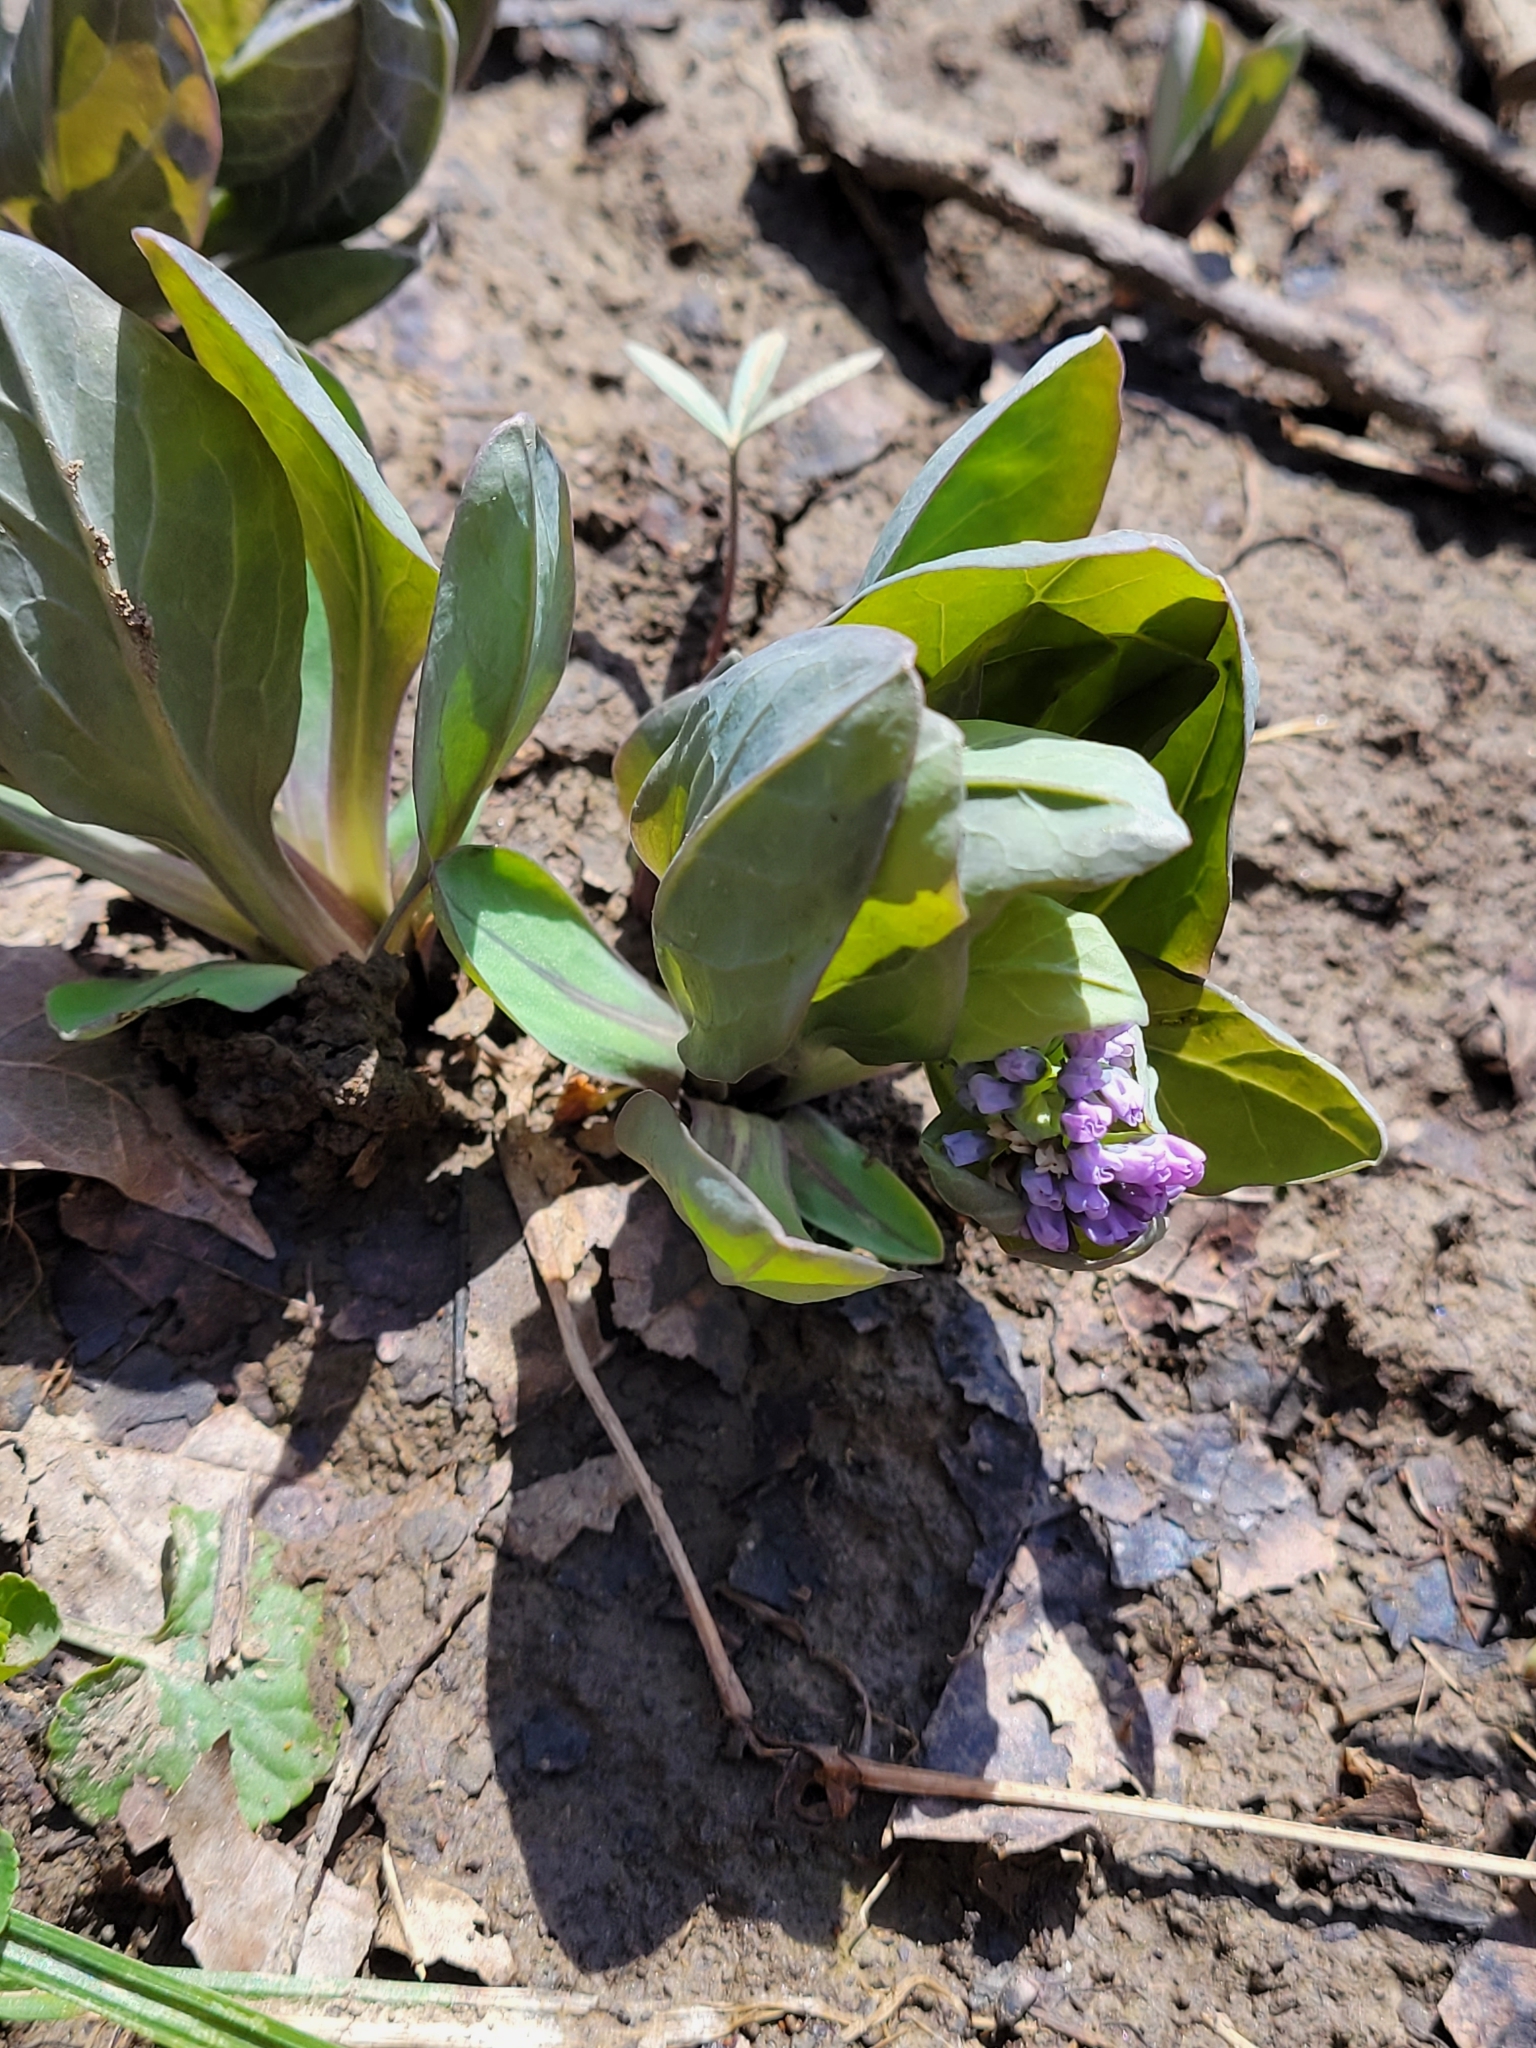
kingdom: Plantae
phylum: Tracheophyta
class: Magnoliopsida
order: Boraginales
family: Boraginaceae
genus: Mertensia
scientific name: Mertensia virginica
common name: Virginia bluebells
